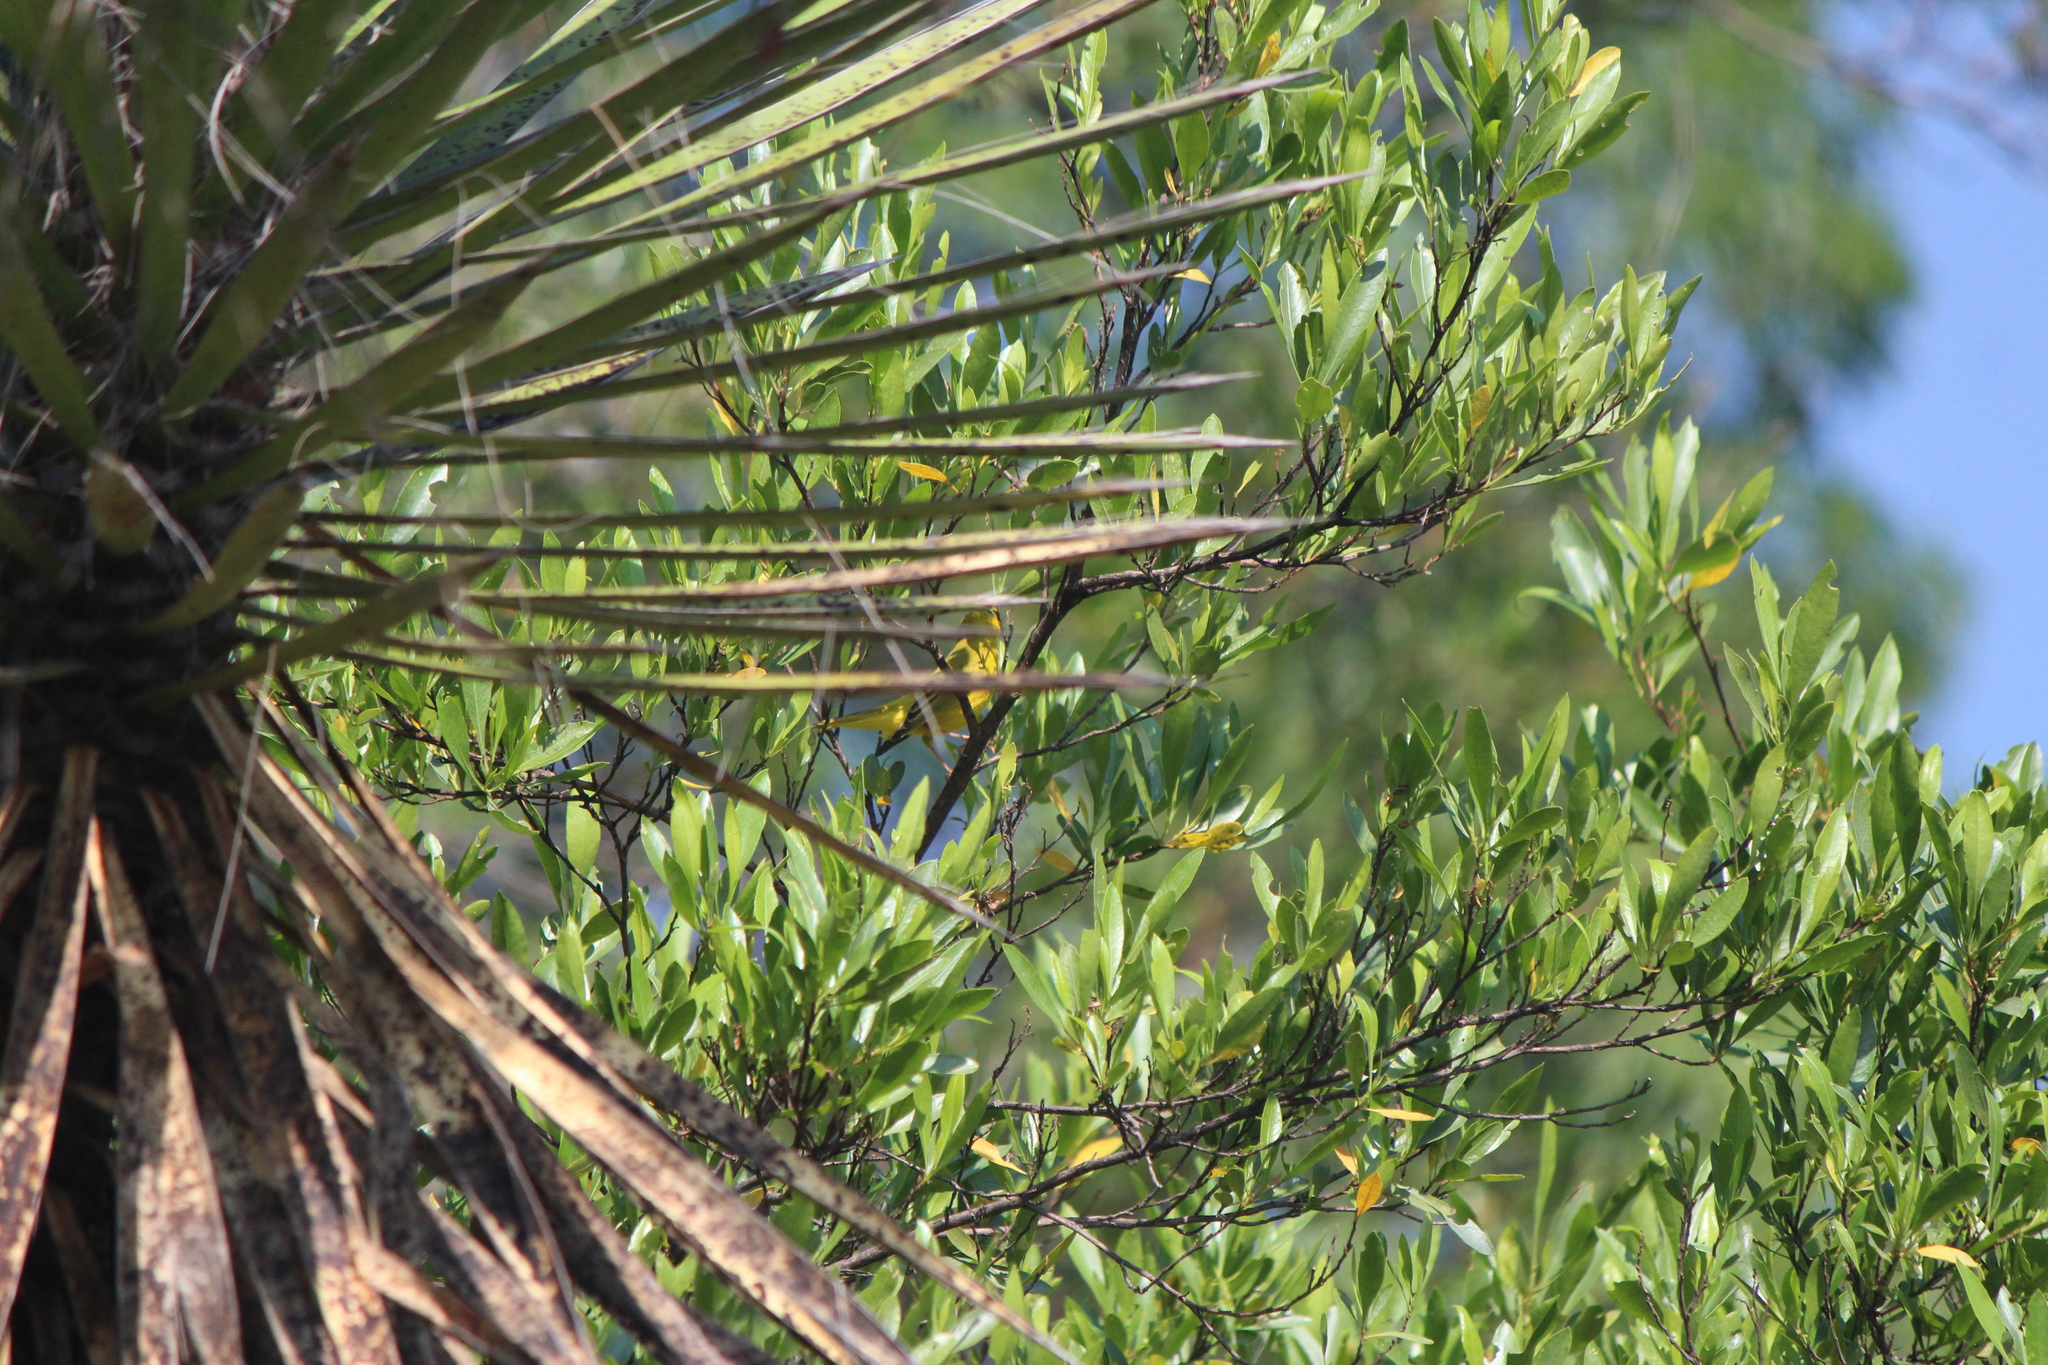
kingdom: Animalia
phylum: Chordata
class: Aves
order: Passeriformes
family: Parulidae
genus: Setophaga
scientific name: Setophaga petechia
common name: Yellow warbler
